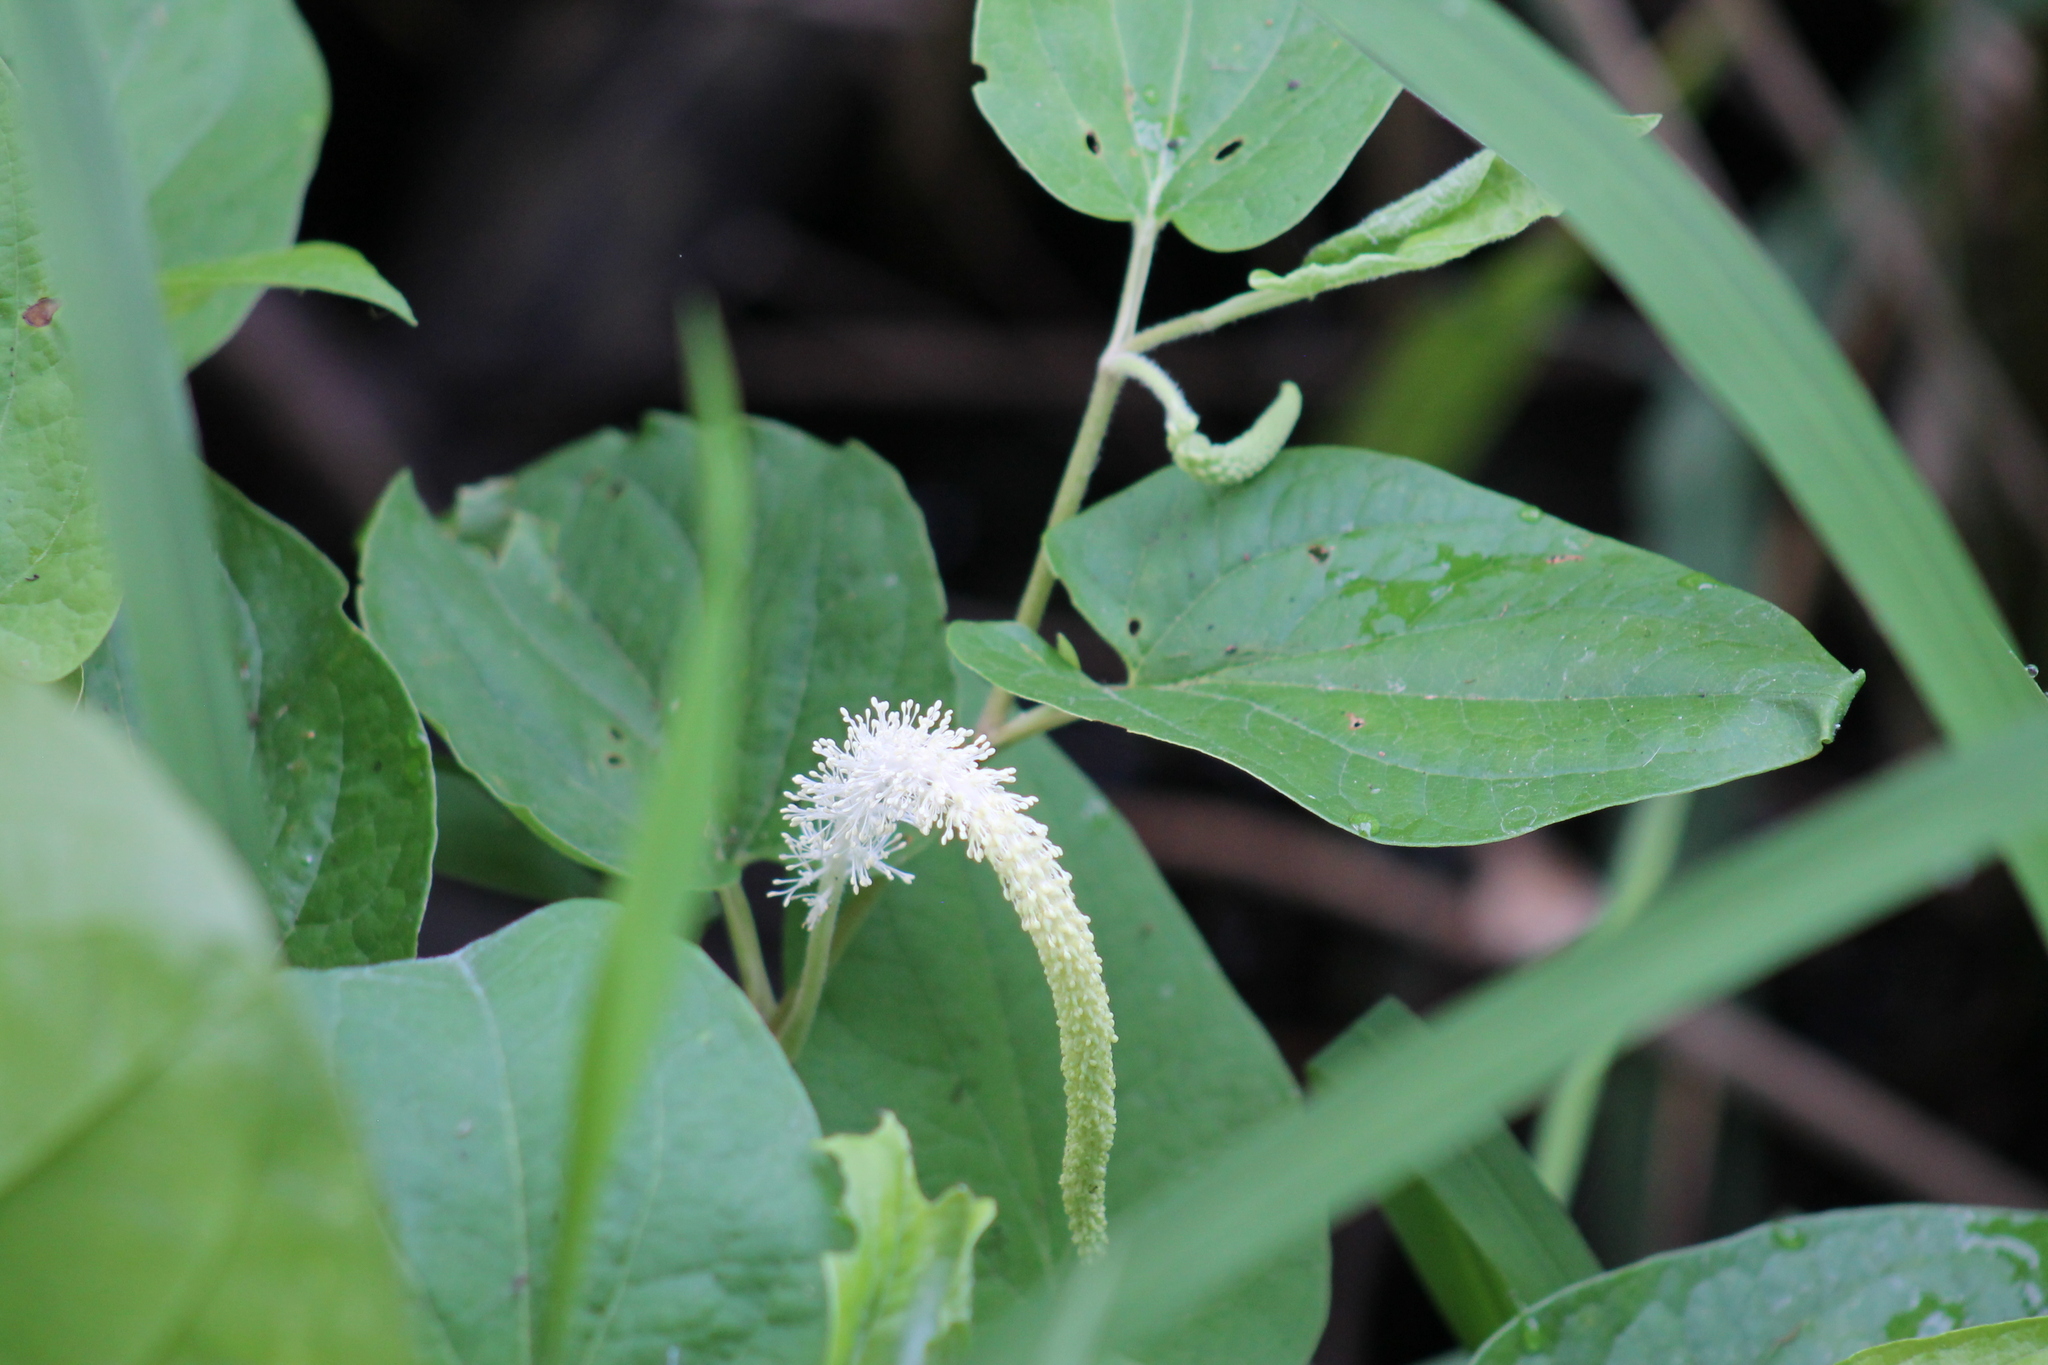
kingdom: Plantae
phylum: Tracheophyta
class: Magnoliopsida
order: Piperales
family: Saururaceae
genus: Saururus
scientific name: Saururus cernuus
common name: Lizard's-tail
